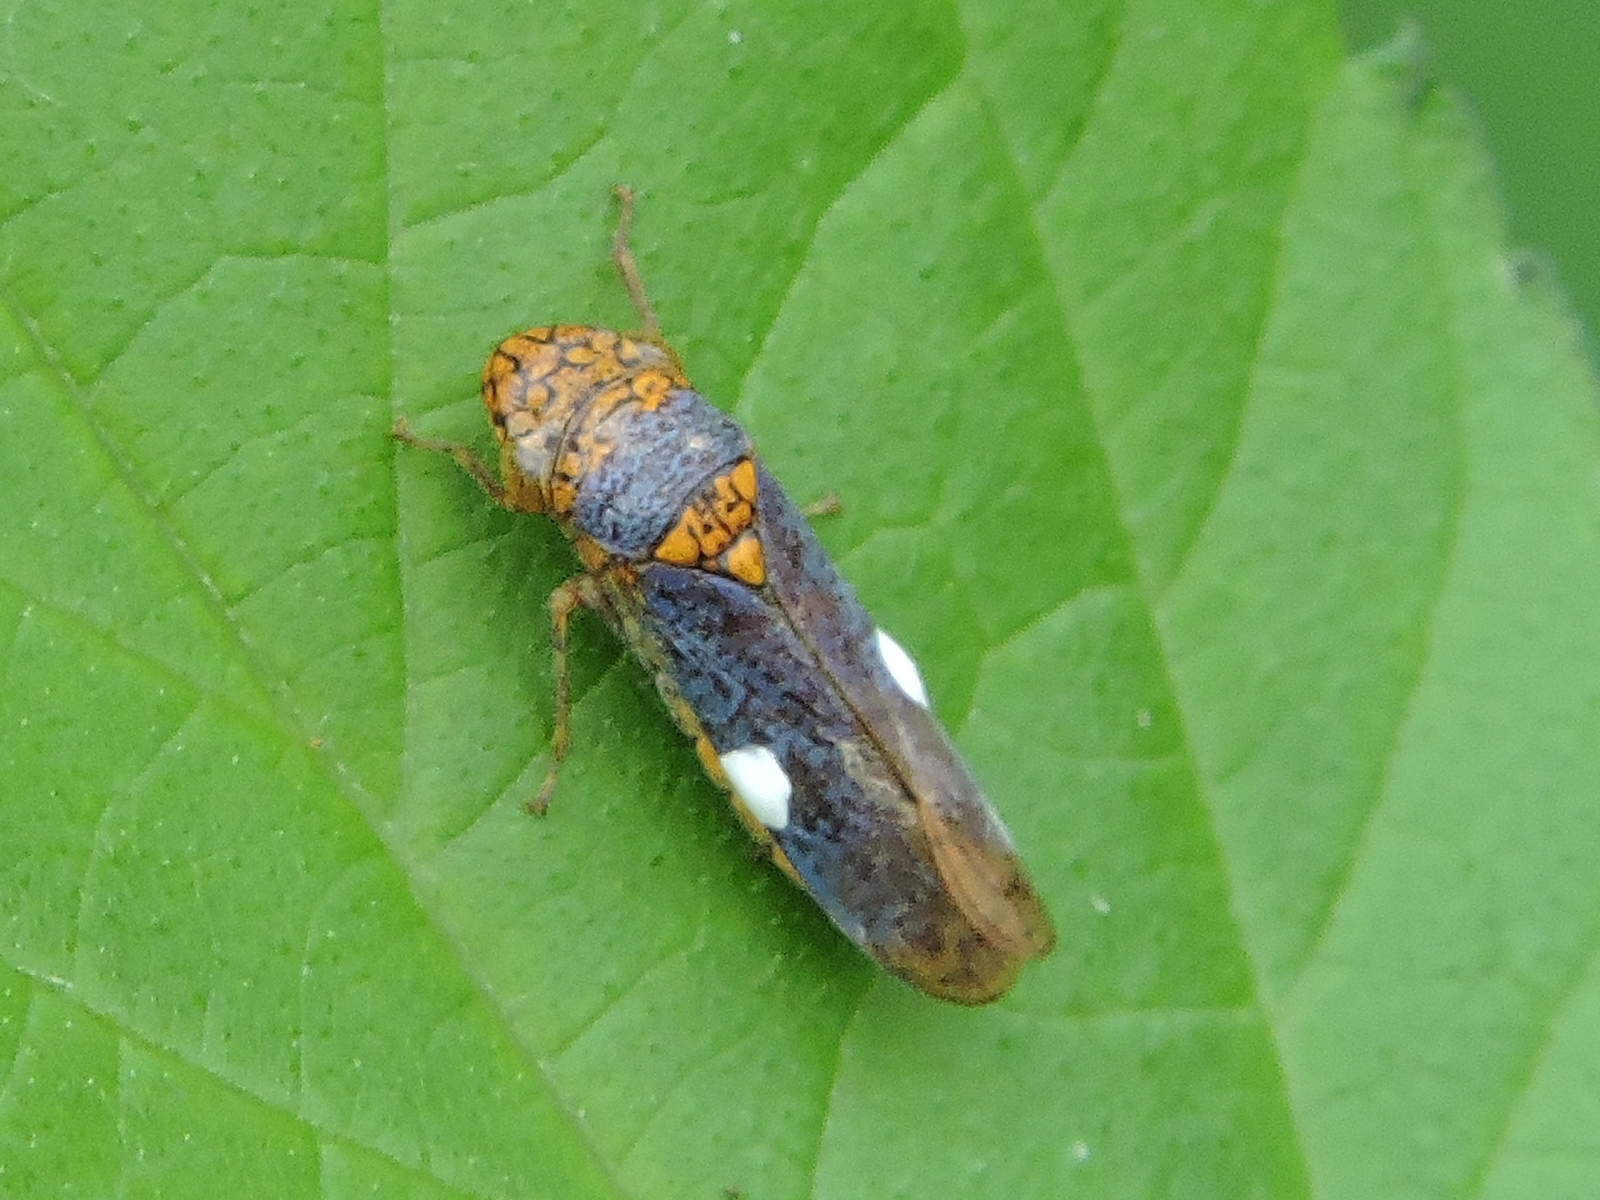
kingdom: Animalia
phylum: Arthropoda
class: Insecta
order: Hemiptera
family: Cicadellidae
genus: Oncometopia
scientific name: Oncometopia orbona
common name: Broad-headed sharpshooter
